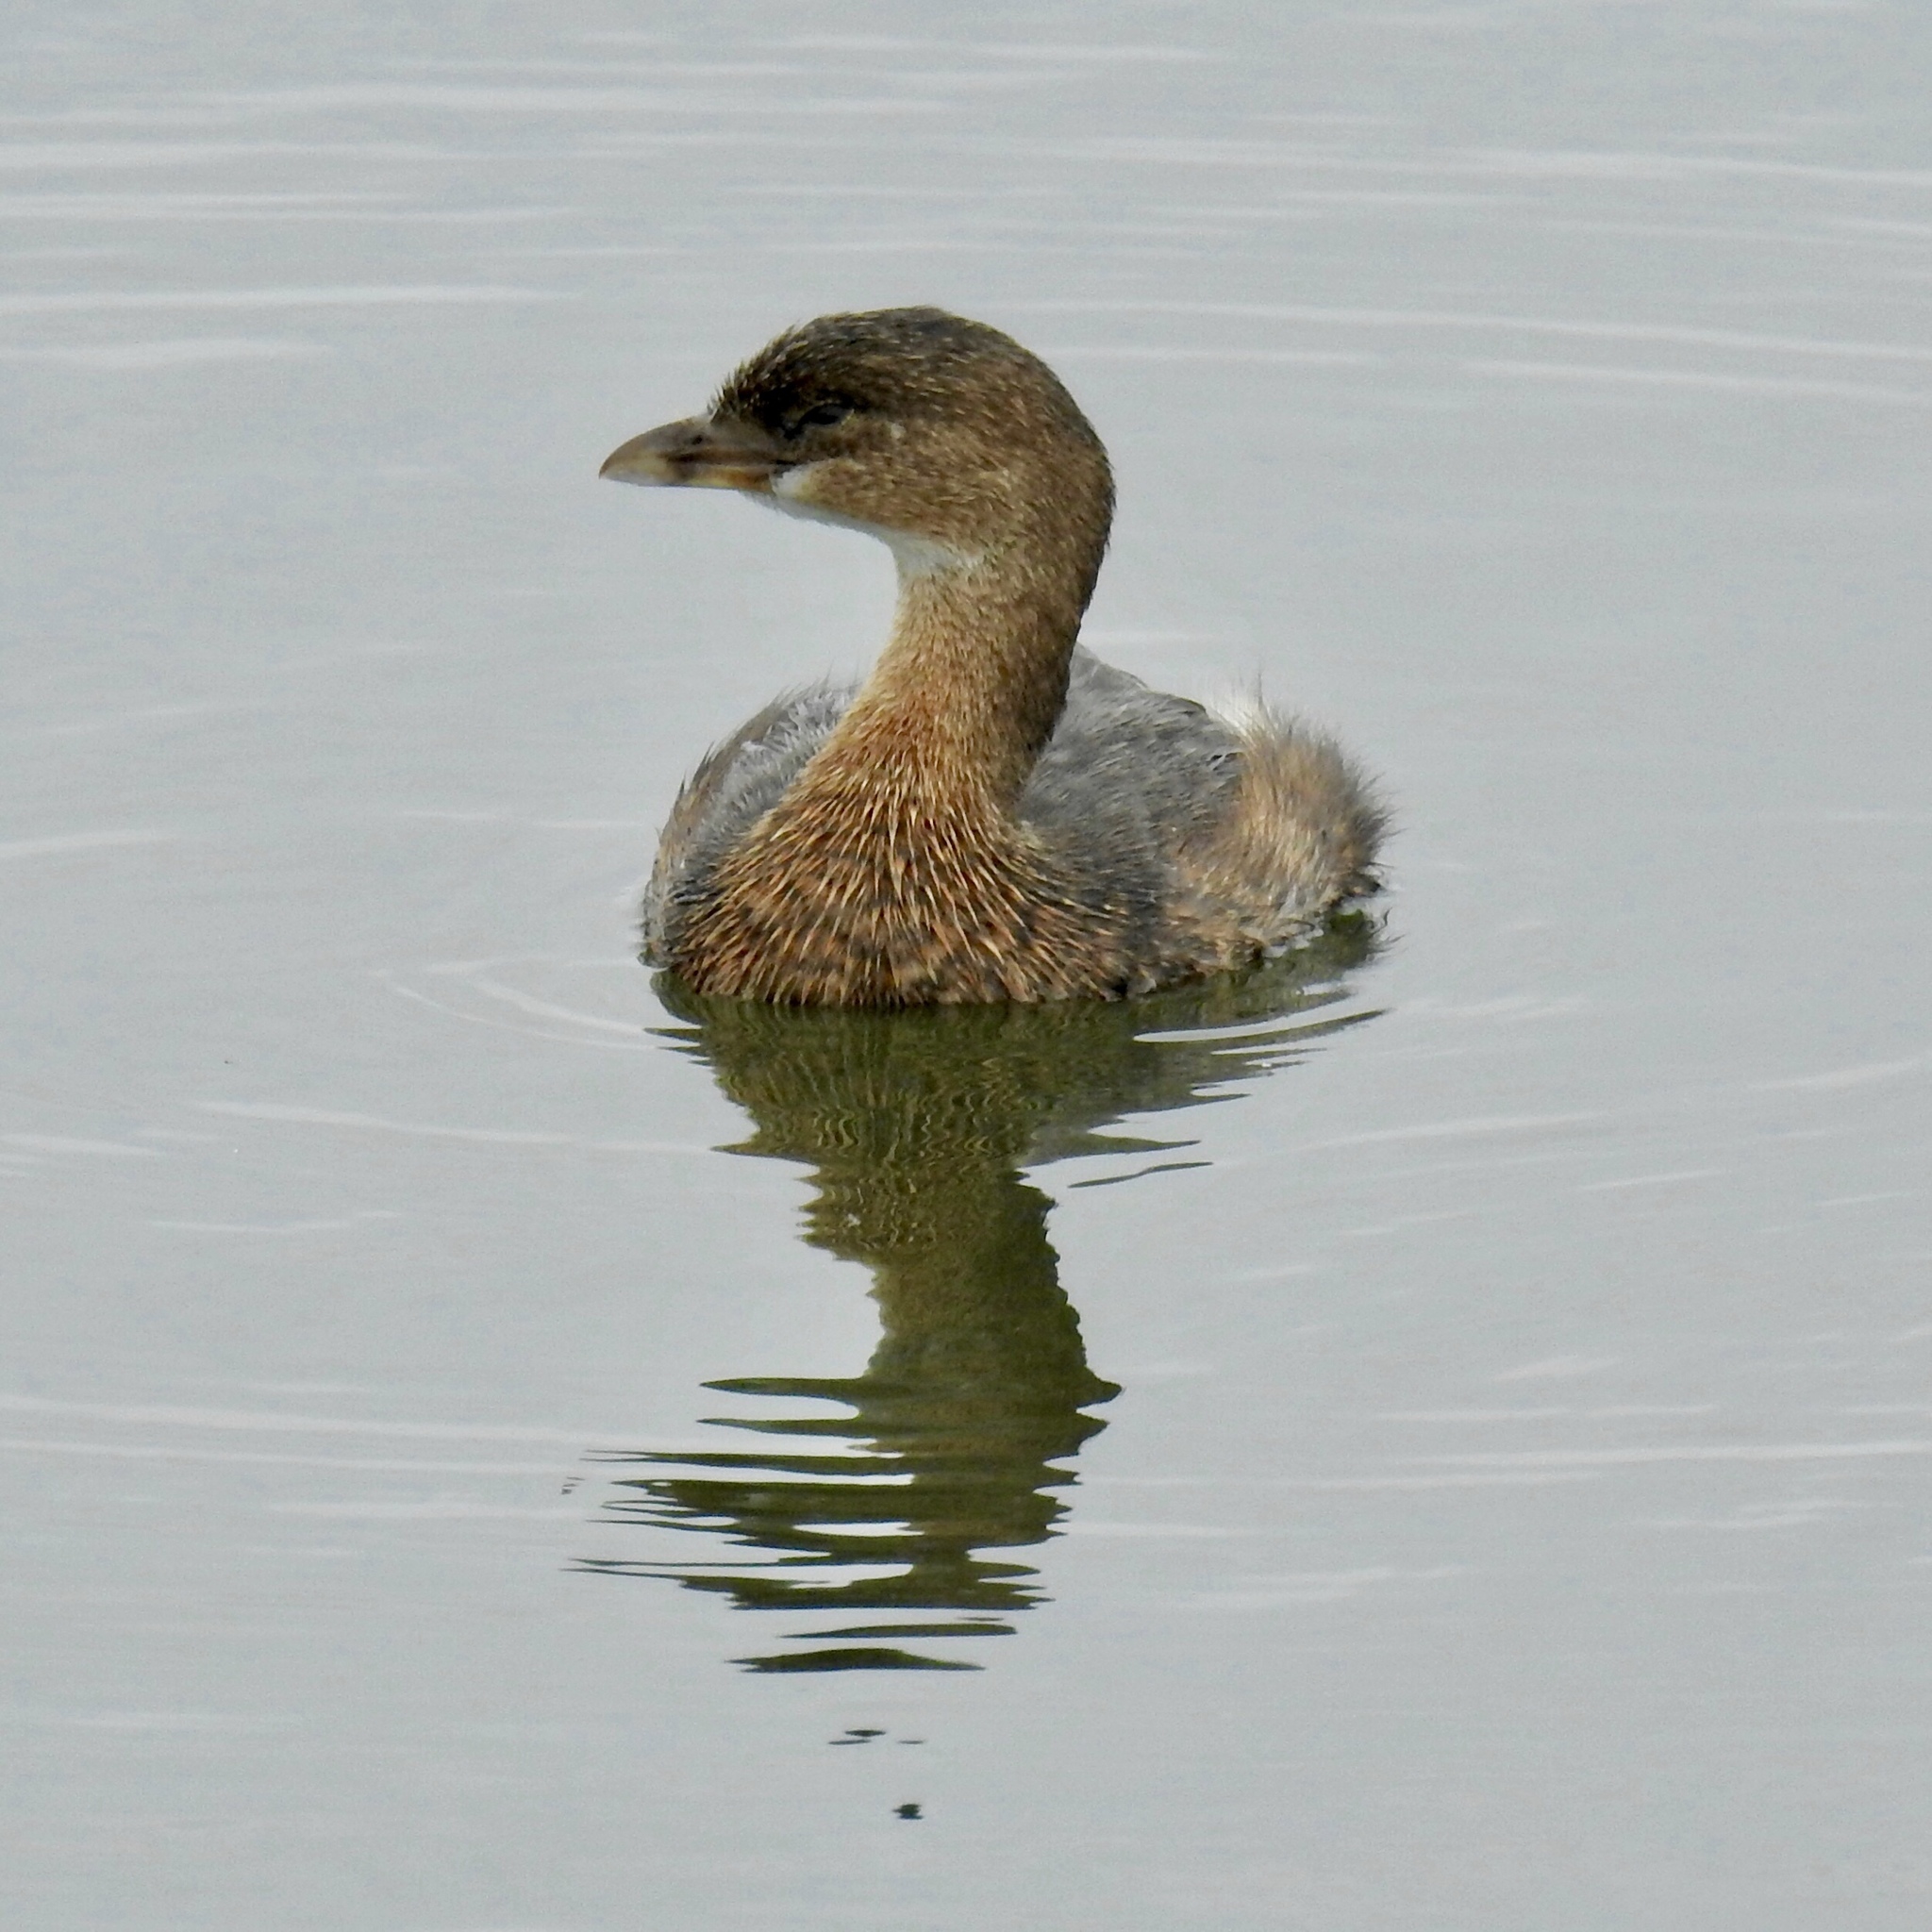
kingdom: Animalia
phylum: Chordata
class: Aves
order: Podicipediformes
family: Podicipedidae
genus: Podilymbus
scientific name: Podilymbus podiceps
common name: Pied-billed grebe
